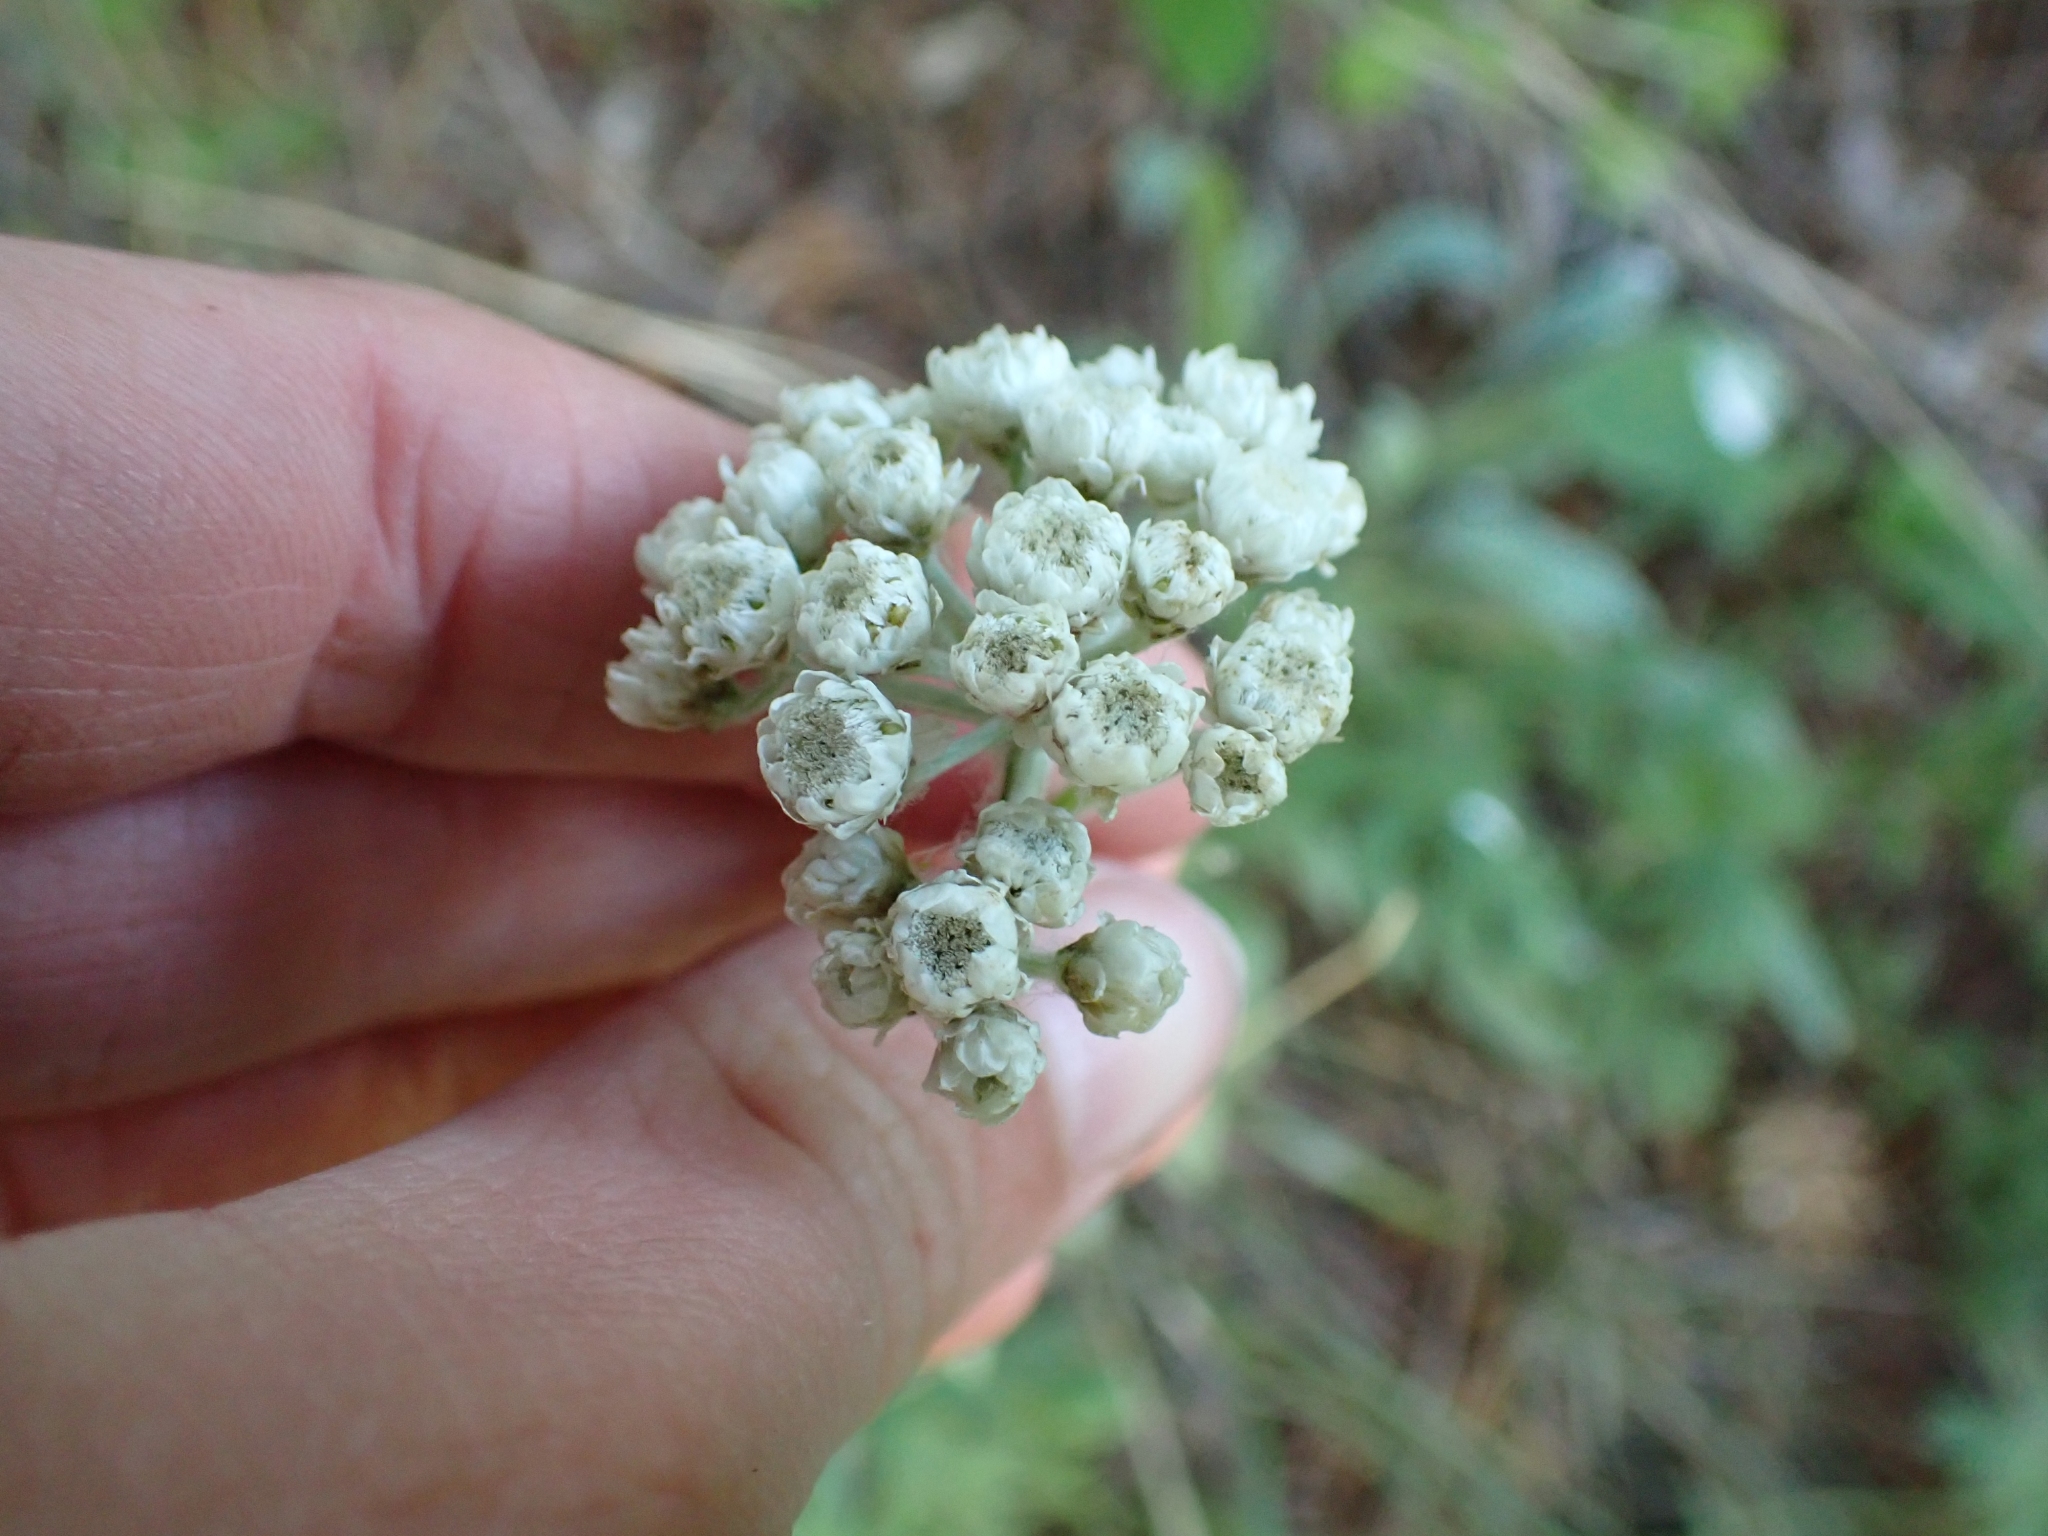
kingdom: Plantae
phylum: Tracheophyta
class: Magnoliopsida
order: Asterales
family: Asteraceae
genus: Antennaria
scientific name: Antennaria anaphaloides
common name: Tall pussytoes
